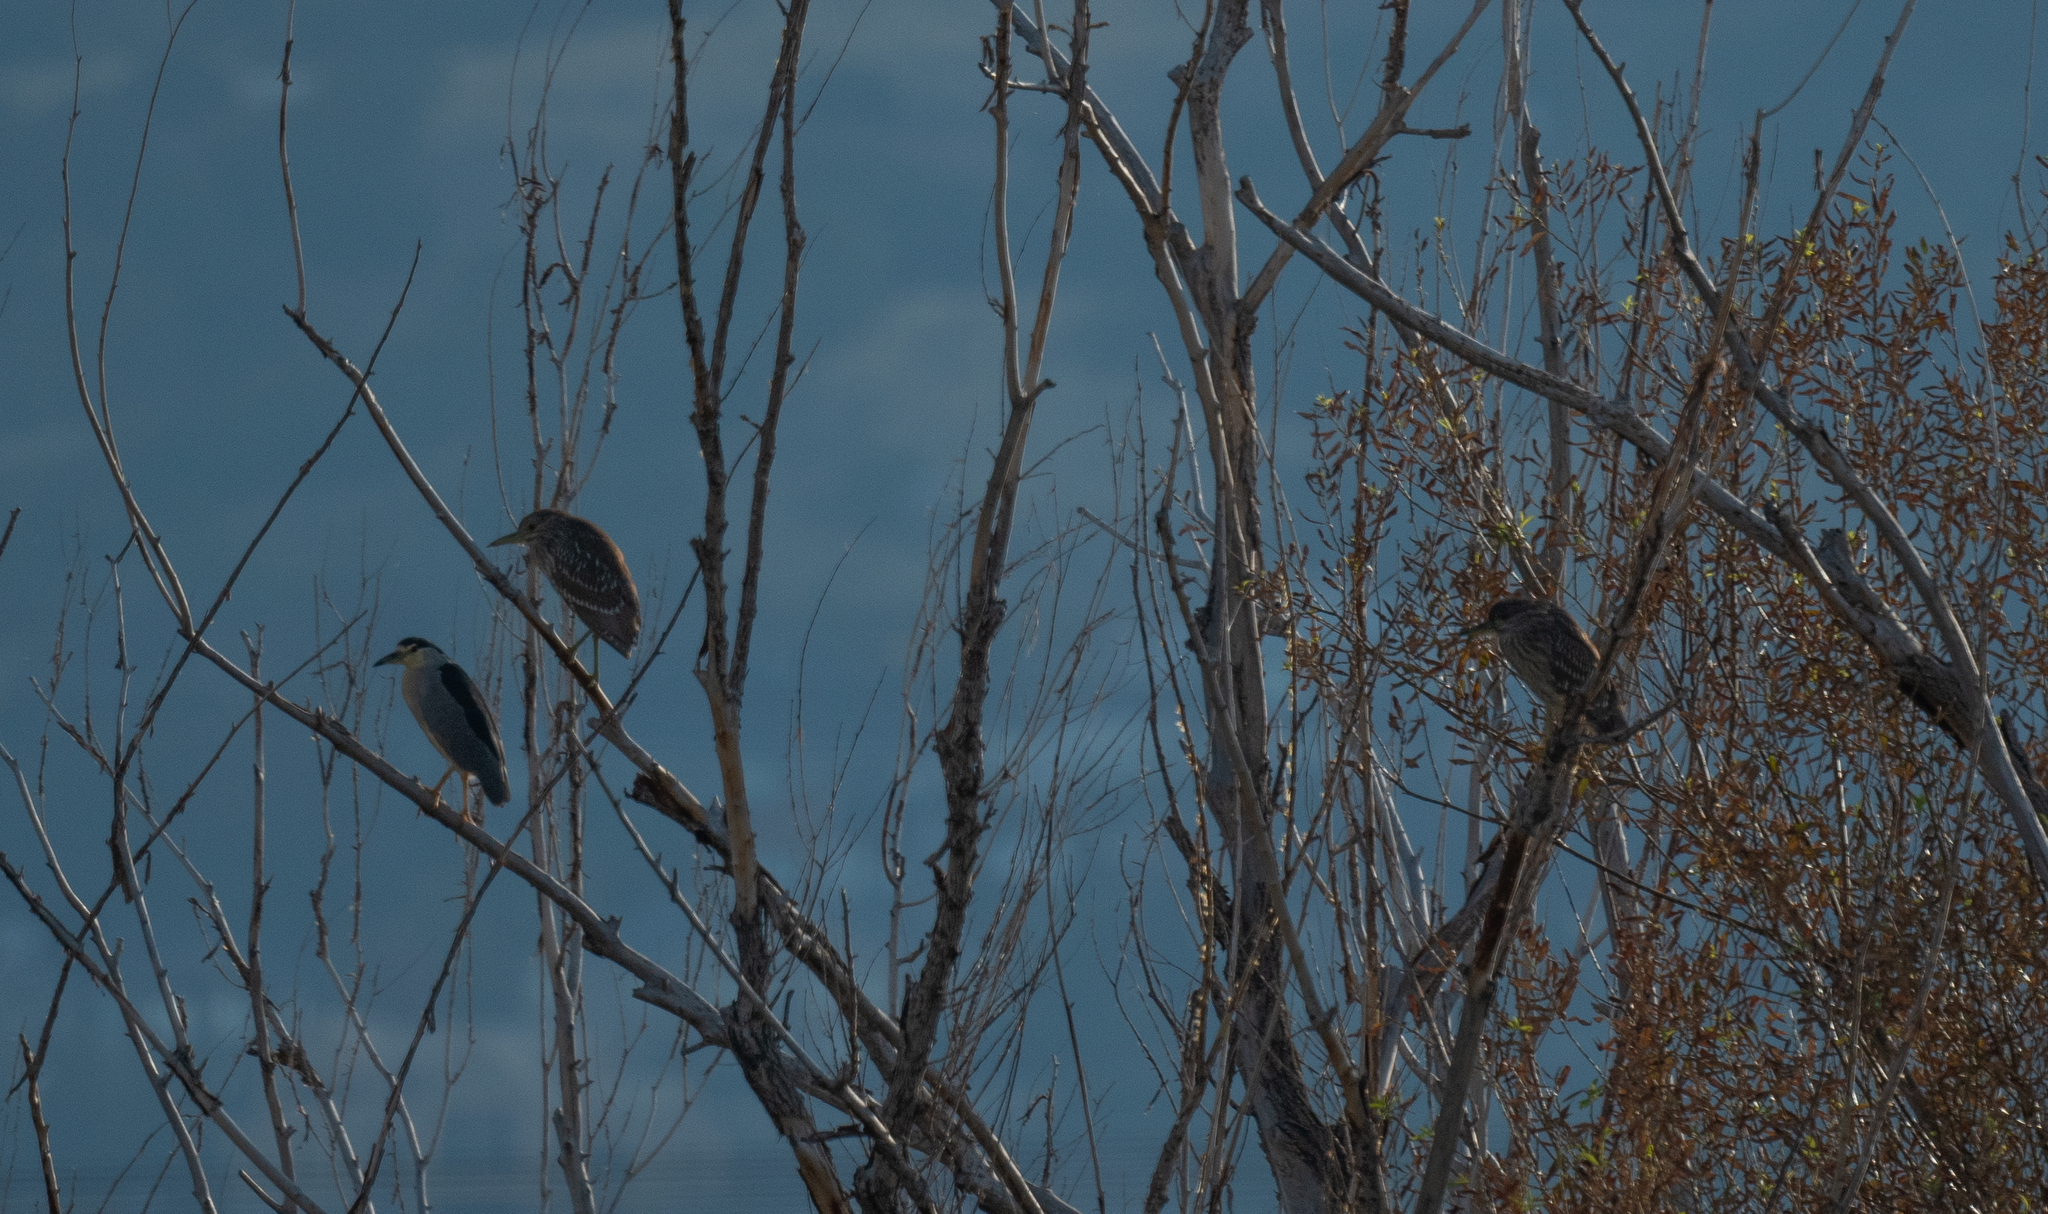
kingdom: Animalia
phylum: Chordata
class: Aves
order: Pelecaniformes
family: Ardeidae
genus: Nycticorax
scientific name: Nycticorax nycticorax
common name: Black-crowned night heron
